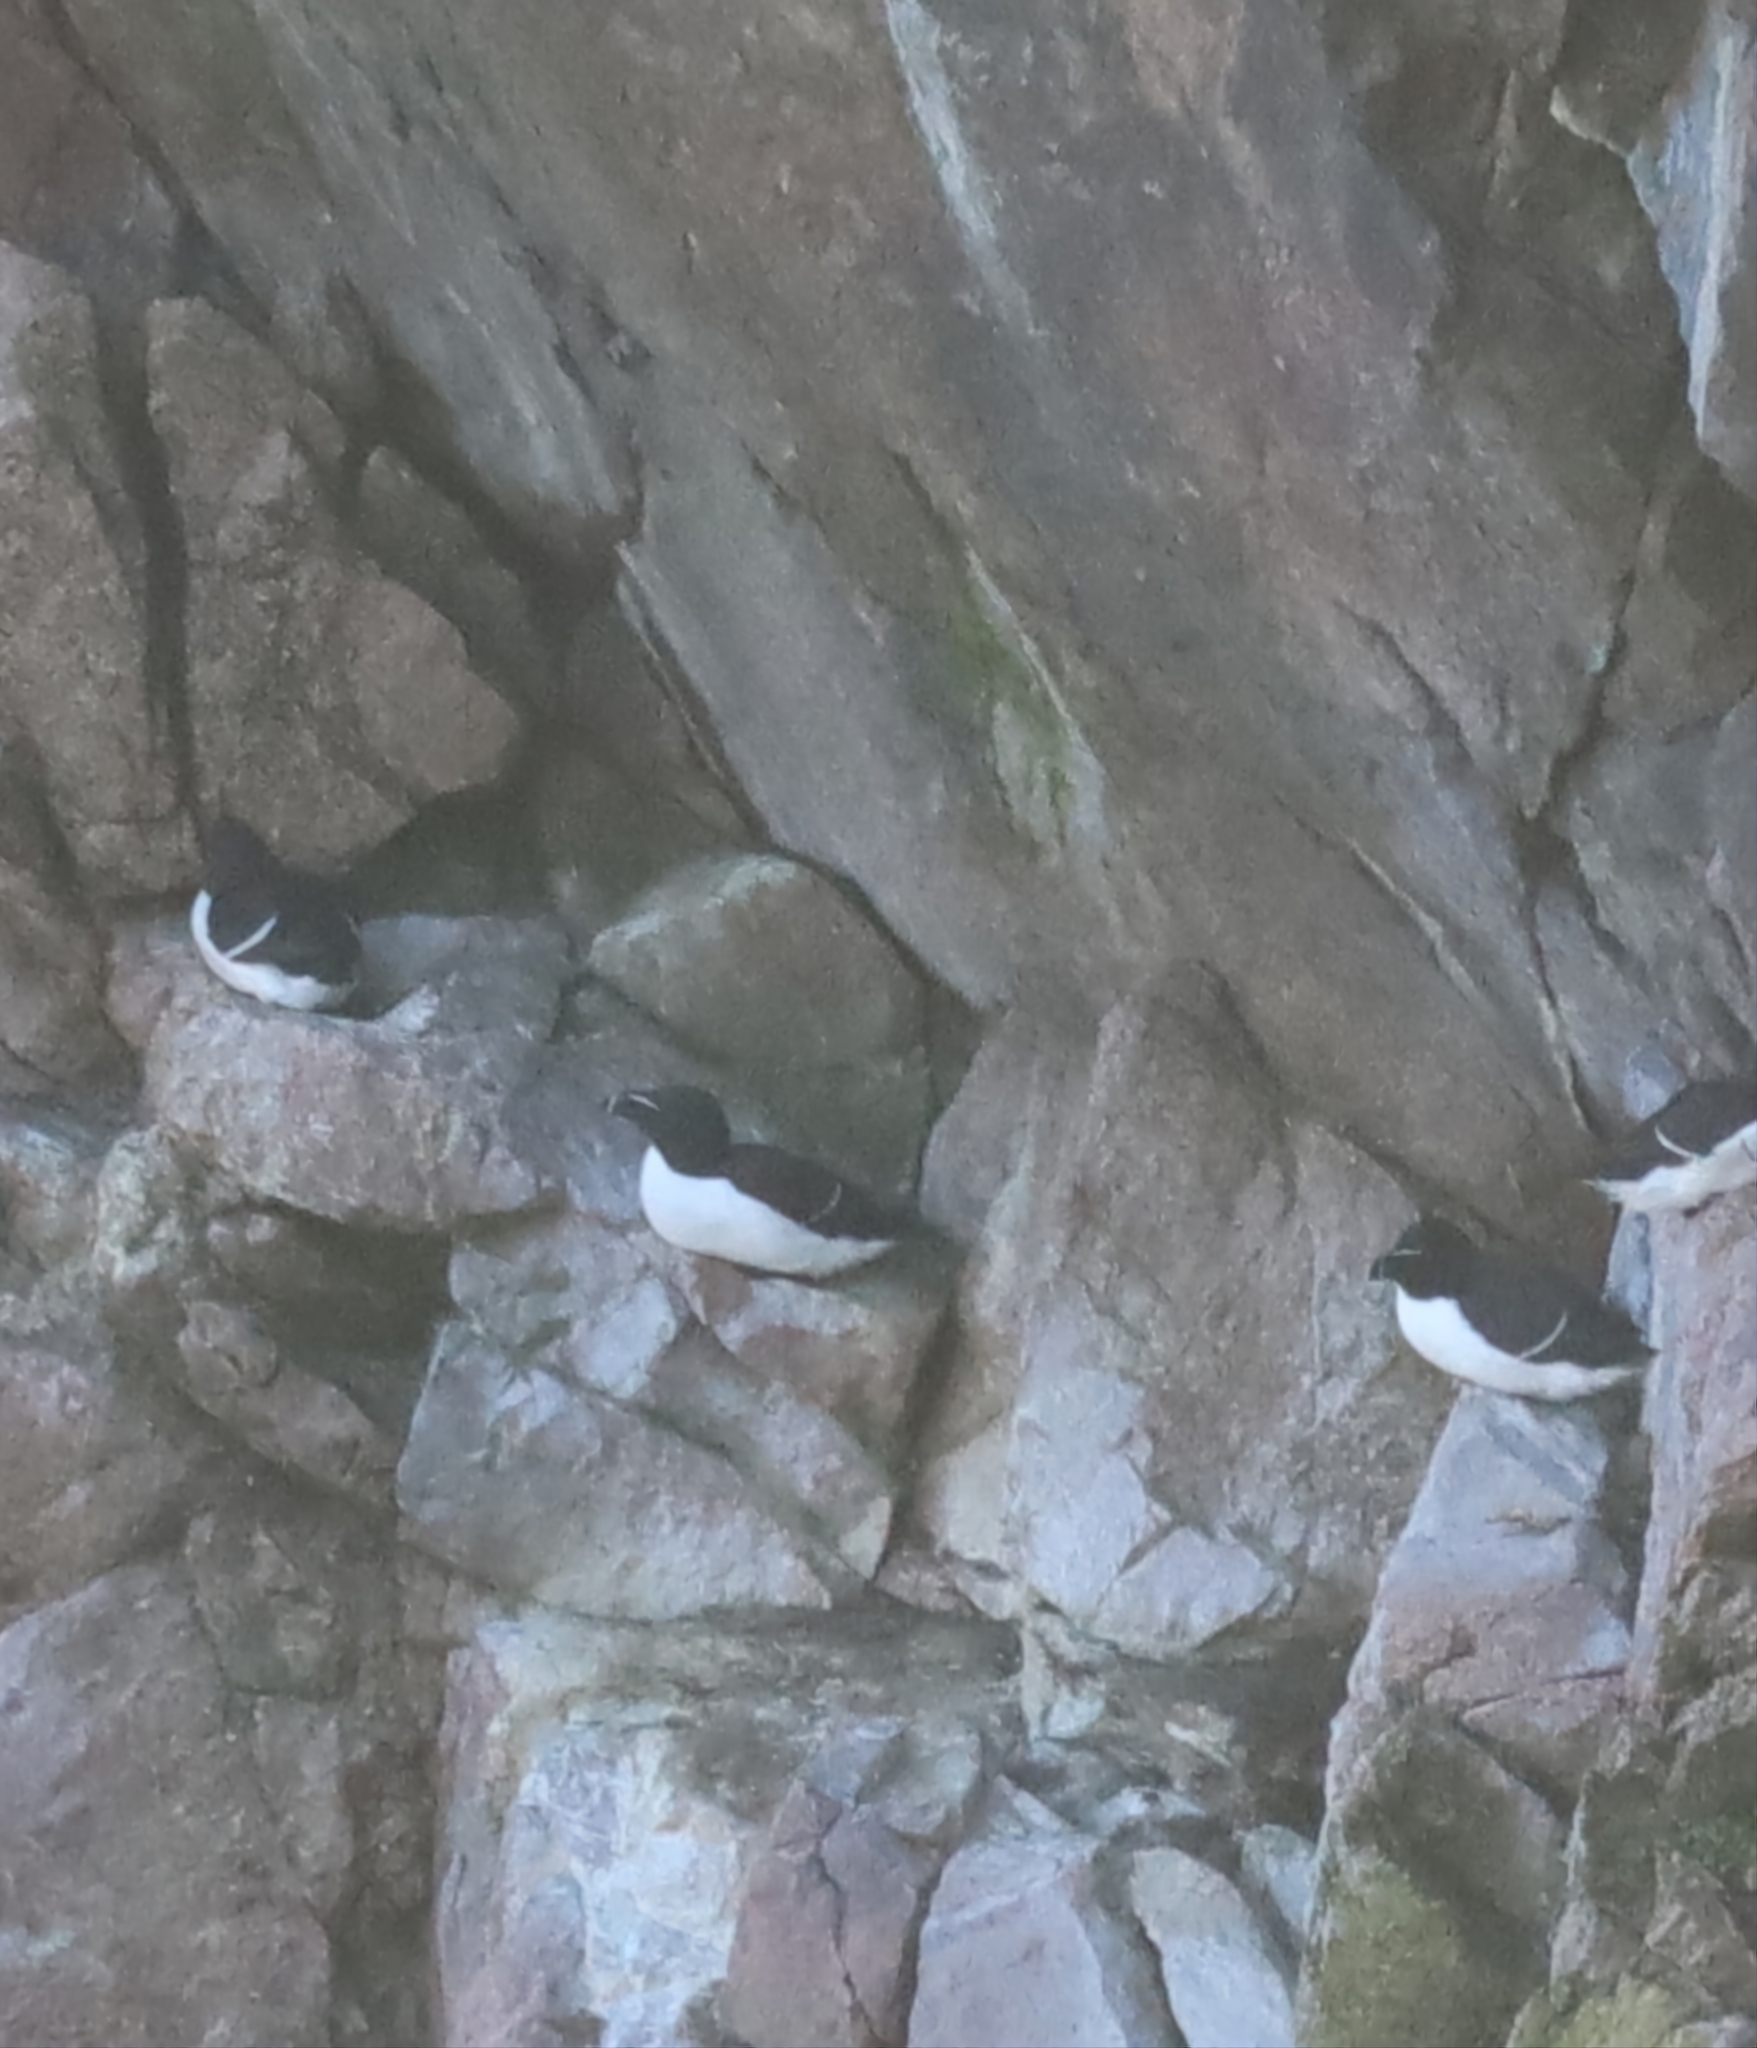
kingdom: Animalia
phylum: Chordata
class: Aves
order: Charadriiformes
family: Alcidae
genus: Alca
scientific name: Alca torda
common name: Razorbill
